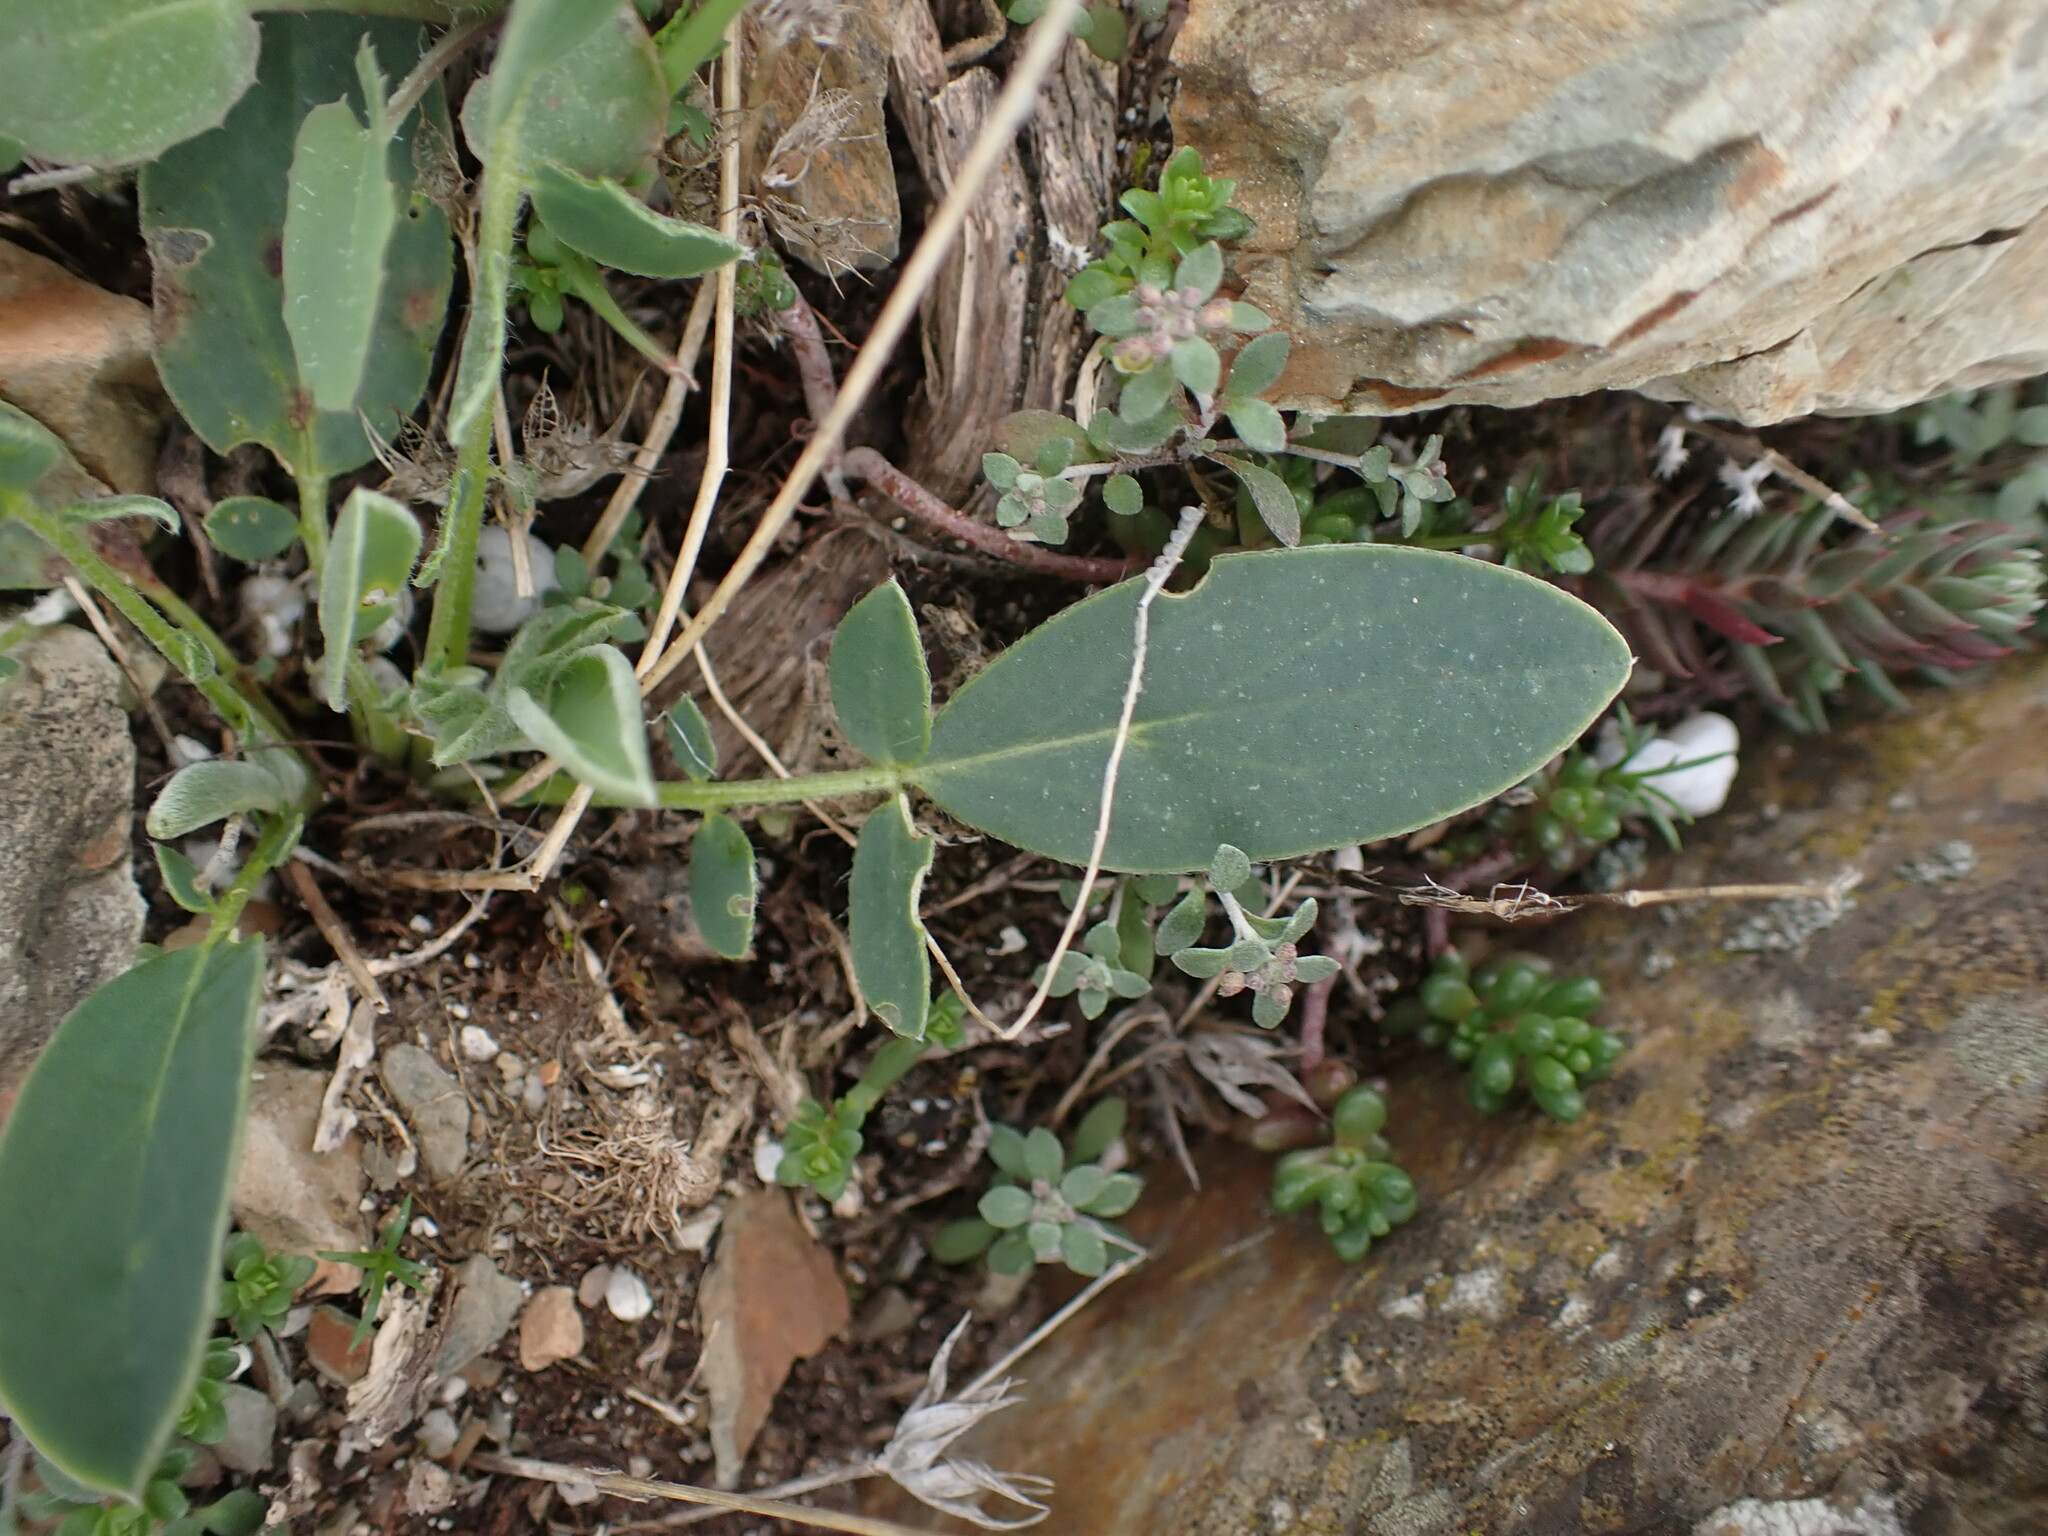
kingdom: Plantae
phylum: Tracheophyta
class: Magnoliopsida
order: Fabales
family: Fabaceae
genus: Anthyllis
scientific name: Anthyllis vulneraria
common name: Kidney vetch
